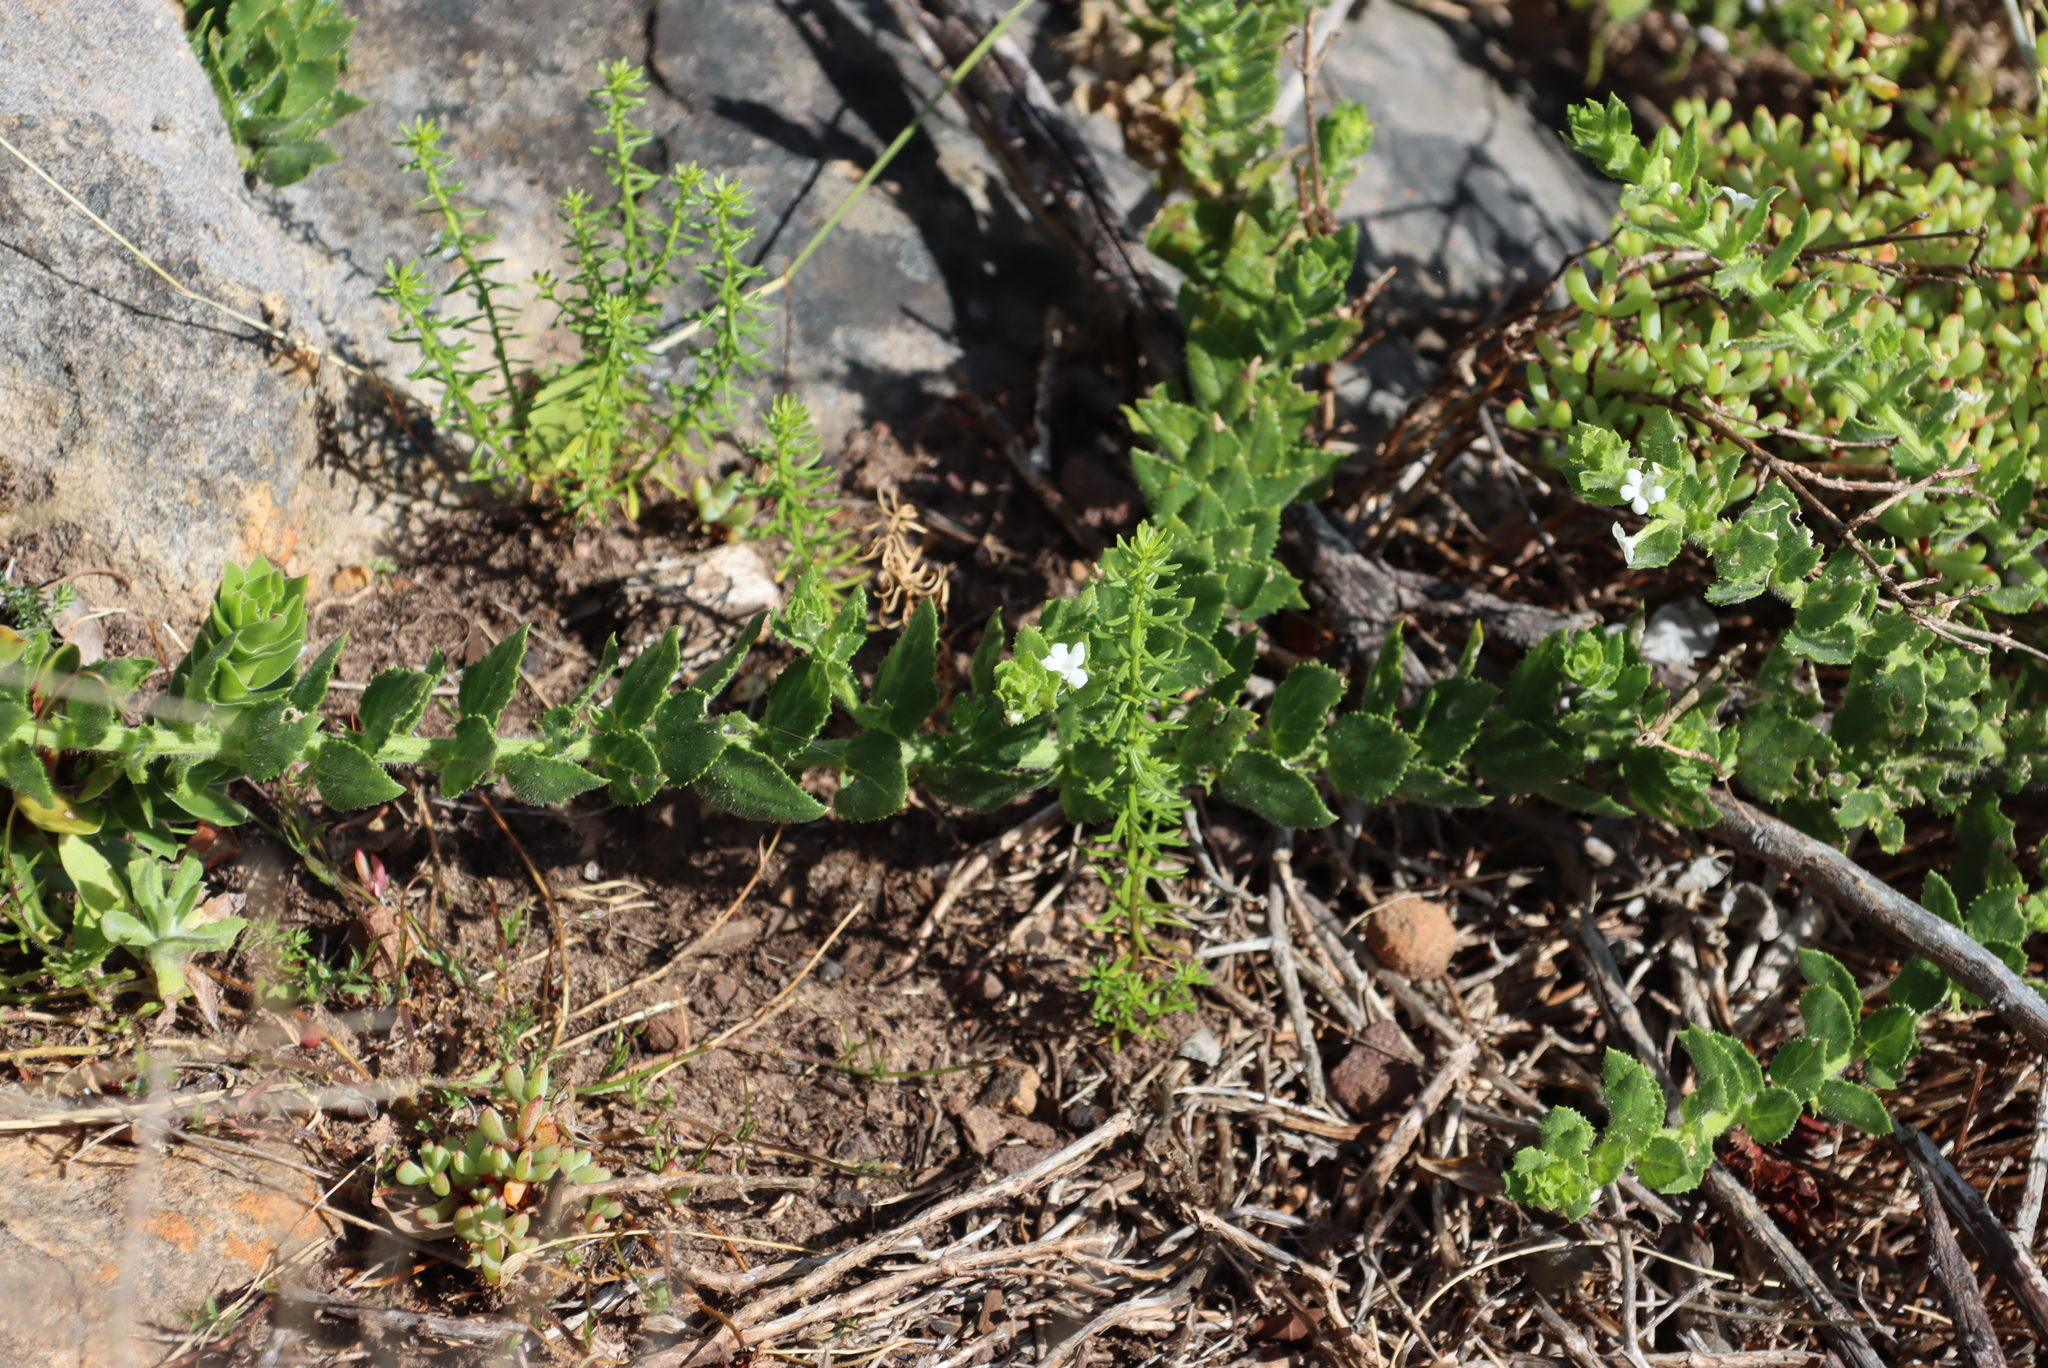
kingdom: Plantae
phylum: Tracheophyta
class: Magnoliopsida
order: Lamiales
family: Scrophulariaceae
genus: Oftia
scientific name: Oftia africana
